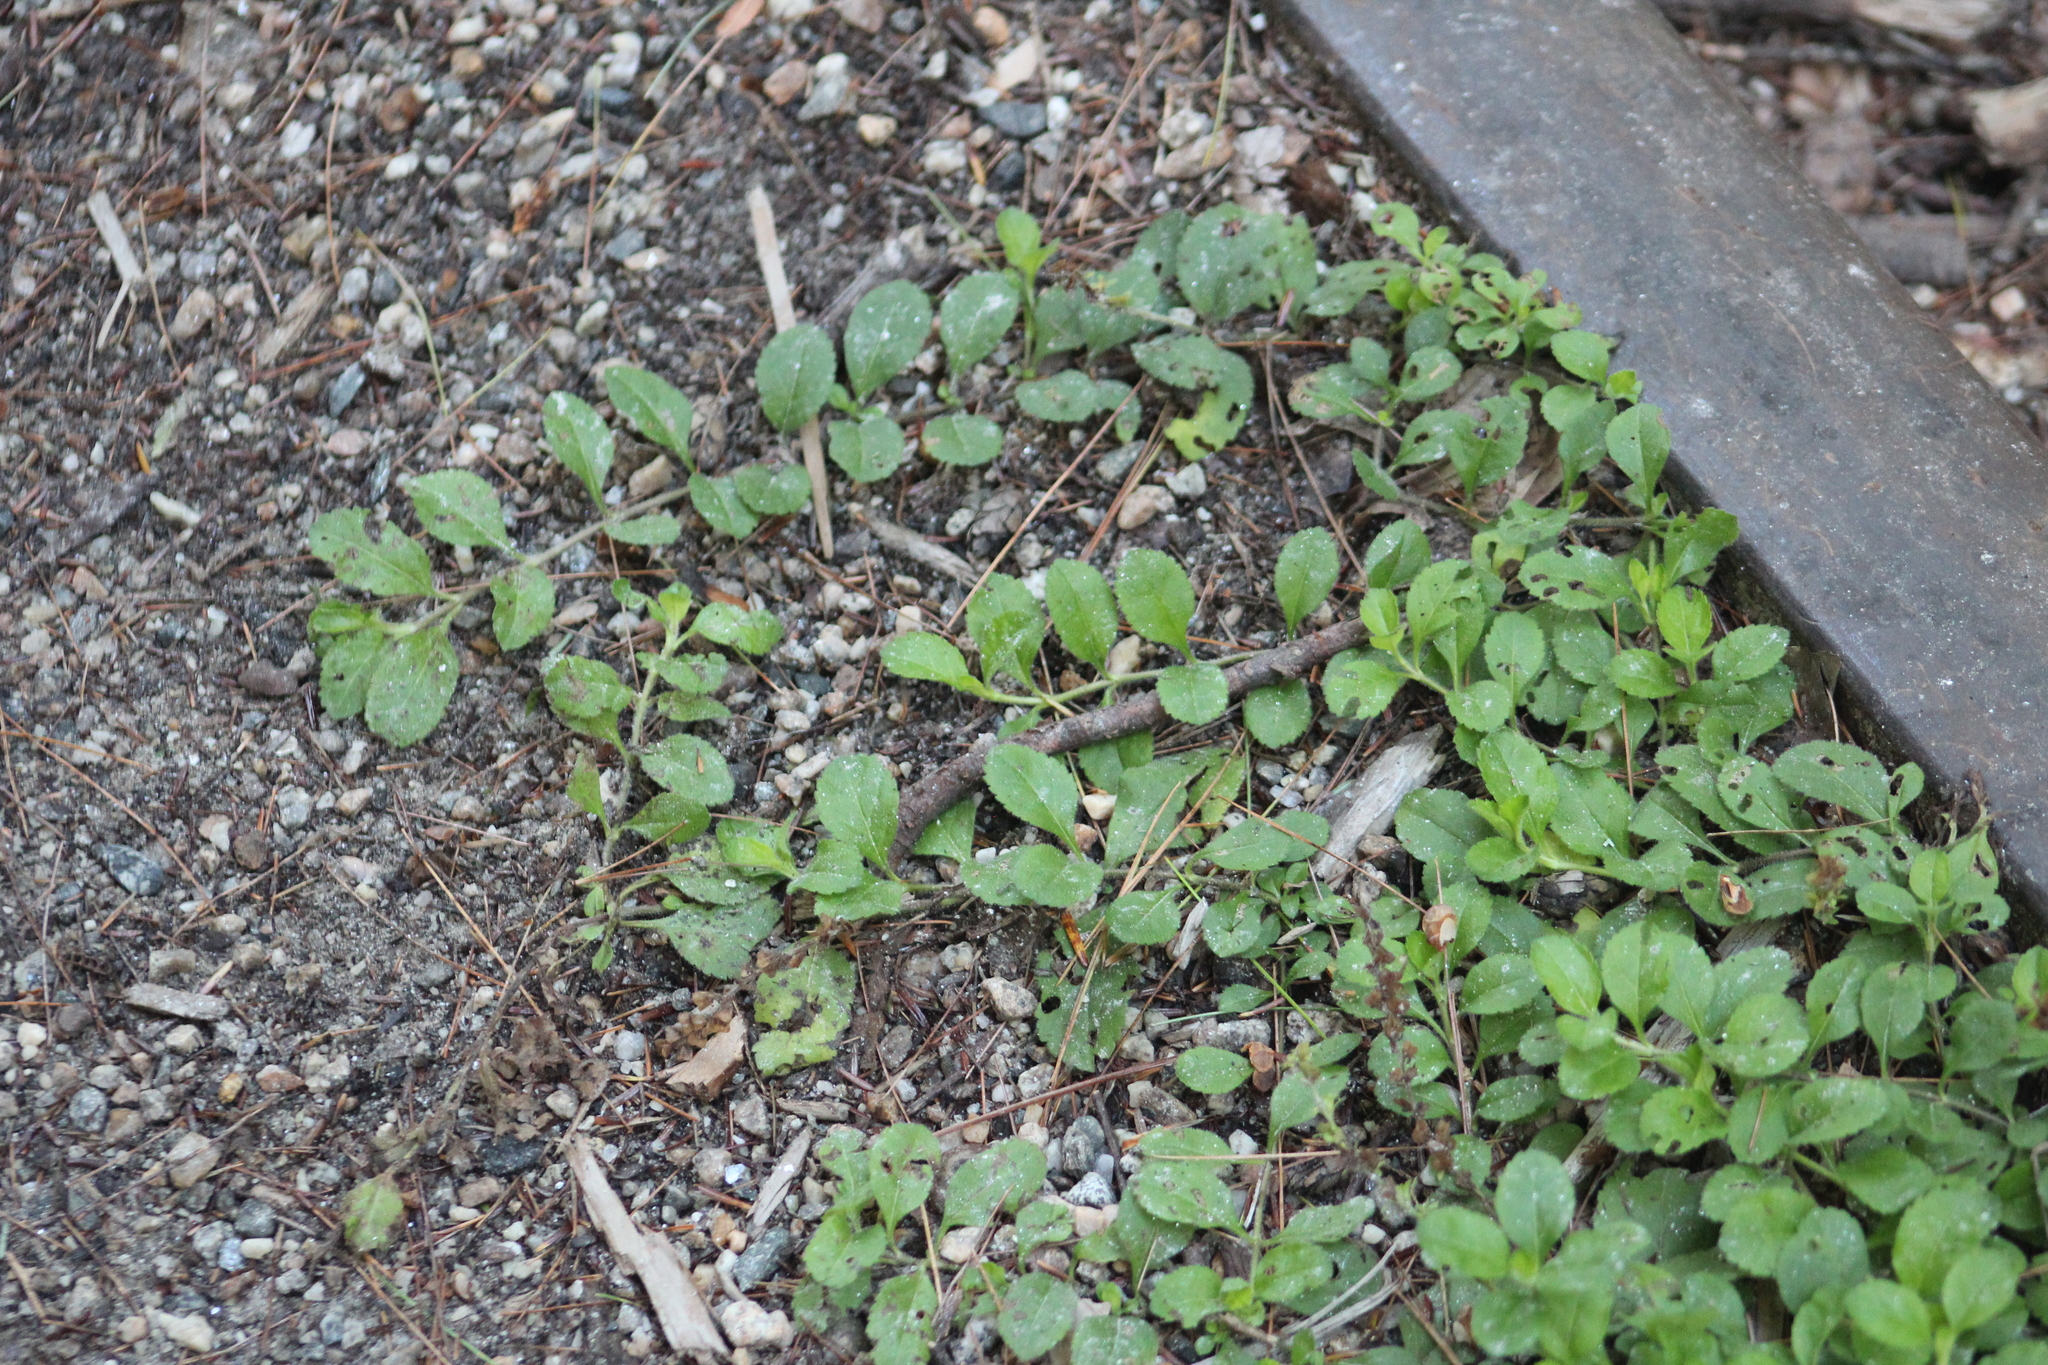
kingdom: Plantae
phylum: Tracheophyta
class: Magnoliopsida
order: Lamiales
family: Plantaginaceae
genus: Veronica
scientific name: Veronica officinalis
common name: Common speedwell
